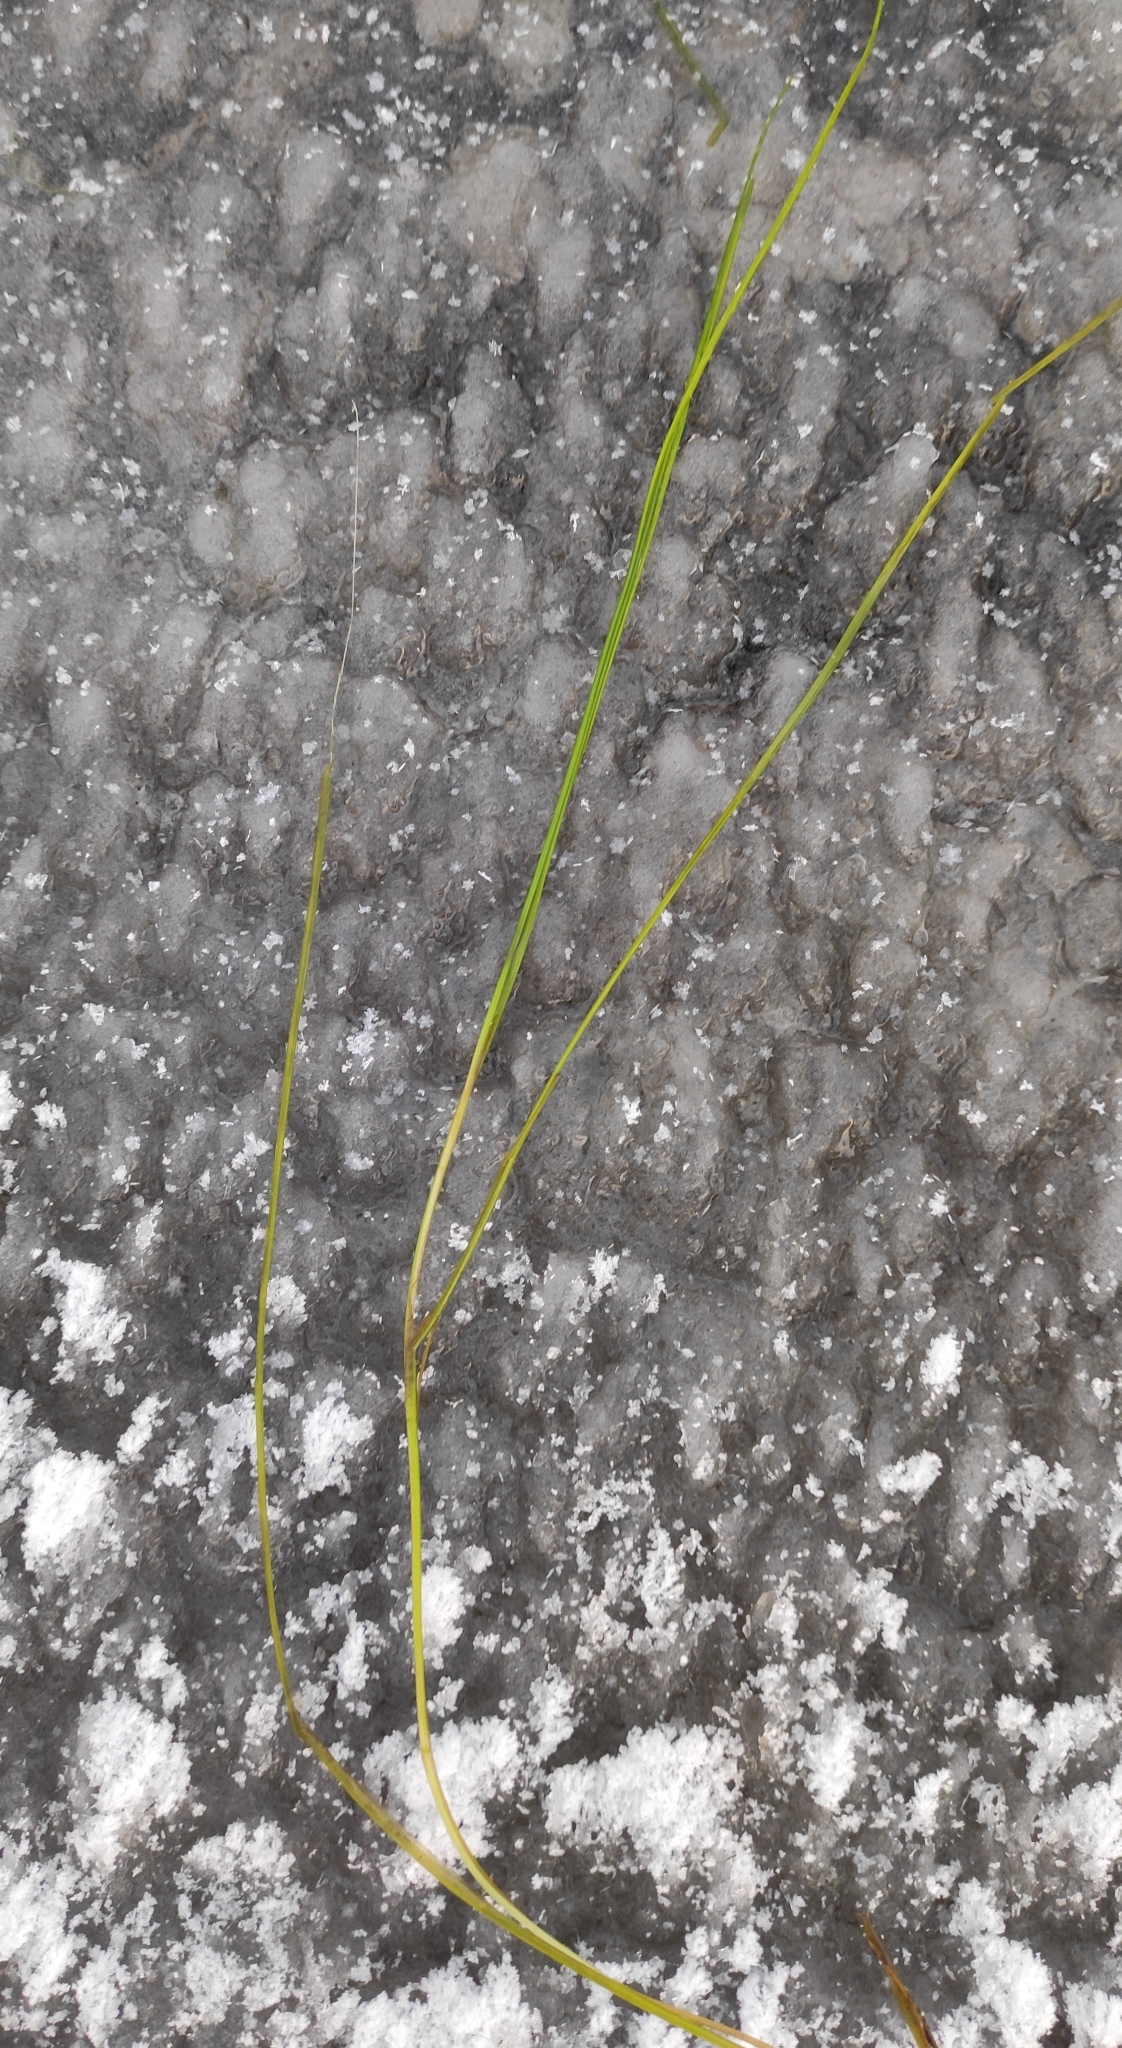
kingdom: Plantae
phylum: Tracheophyta
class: Liliopsida
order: Alismatales
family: Potamogetonaceae
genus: Stuckenia
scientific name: Stuckenia pectinata
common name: Sago pondweed
